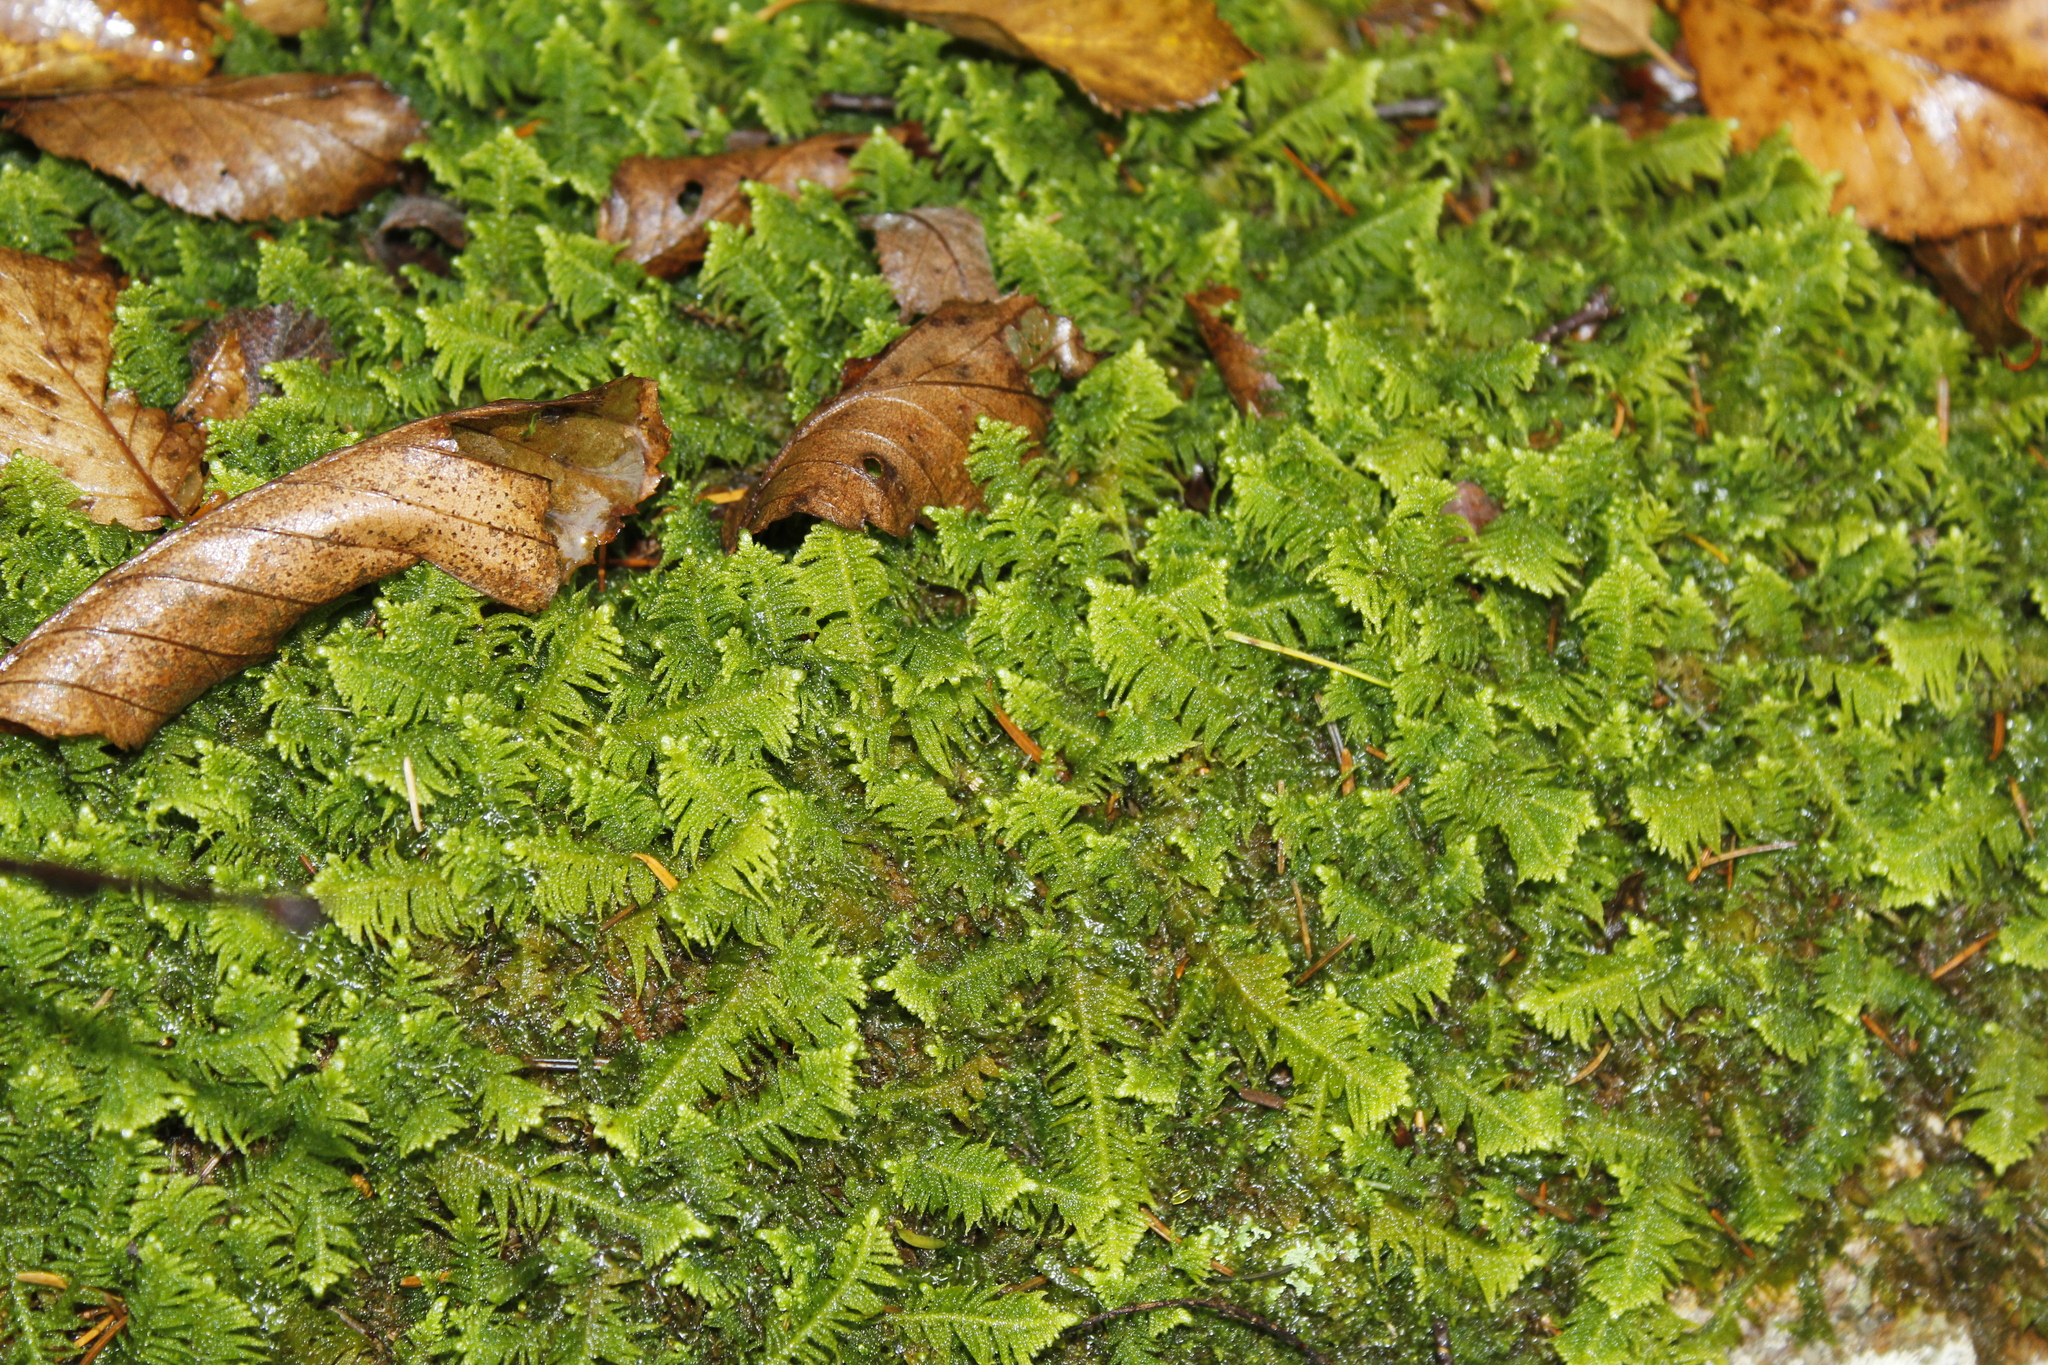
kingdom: Plantae
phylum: Bryophyta
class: Bryopsida
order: Hypnales
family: Pylaisiaceae
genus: Ptilium
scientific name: Ptilium crista-castrensis
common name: Knight's plume moss
